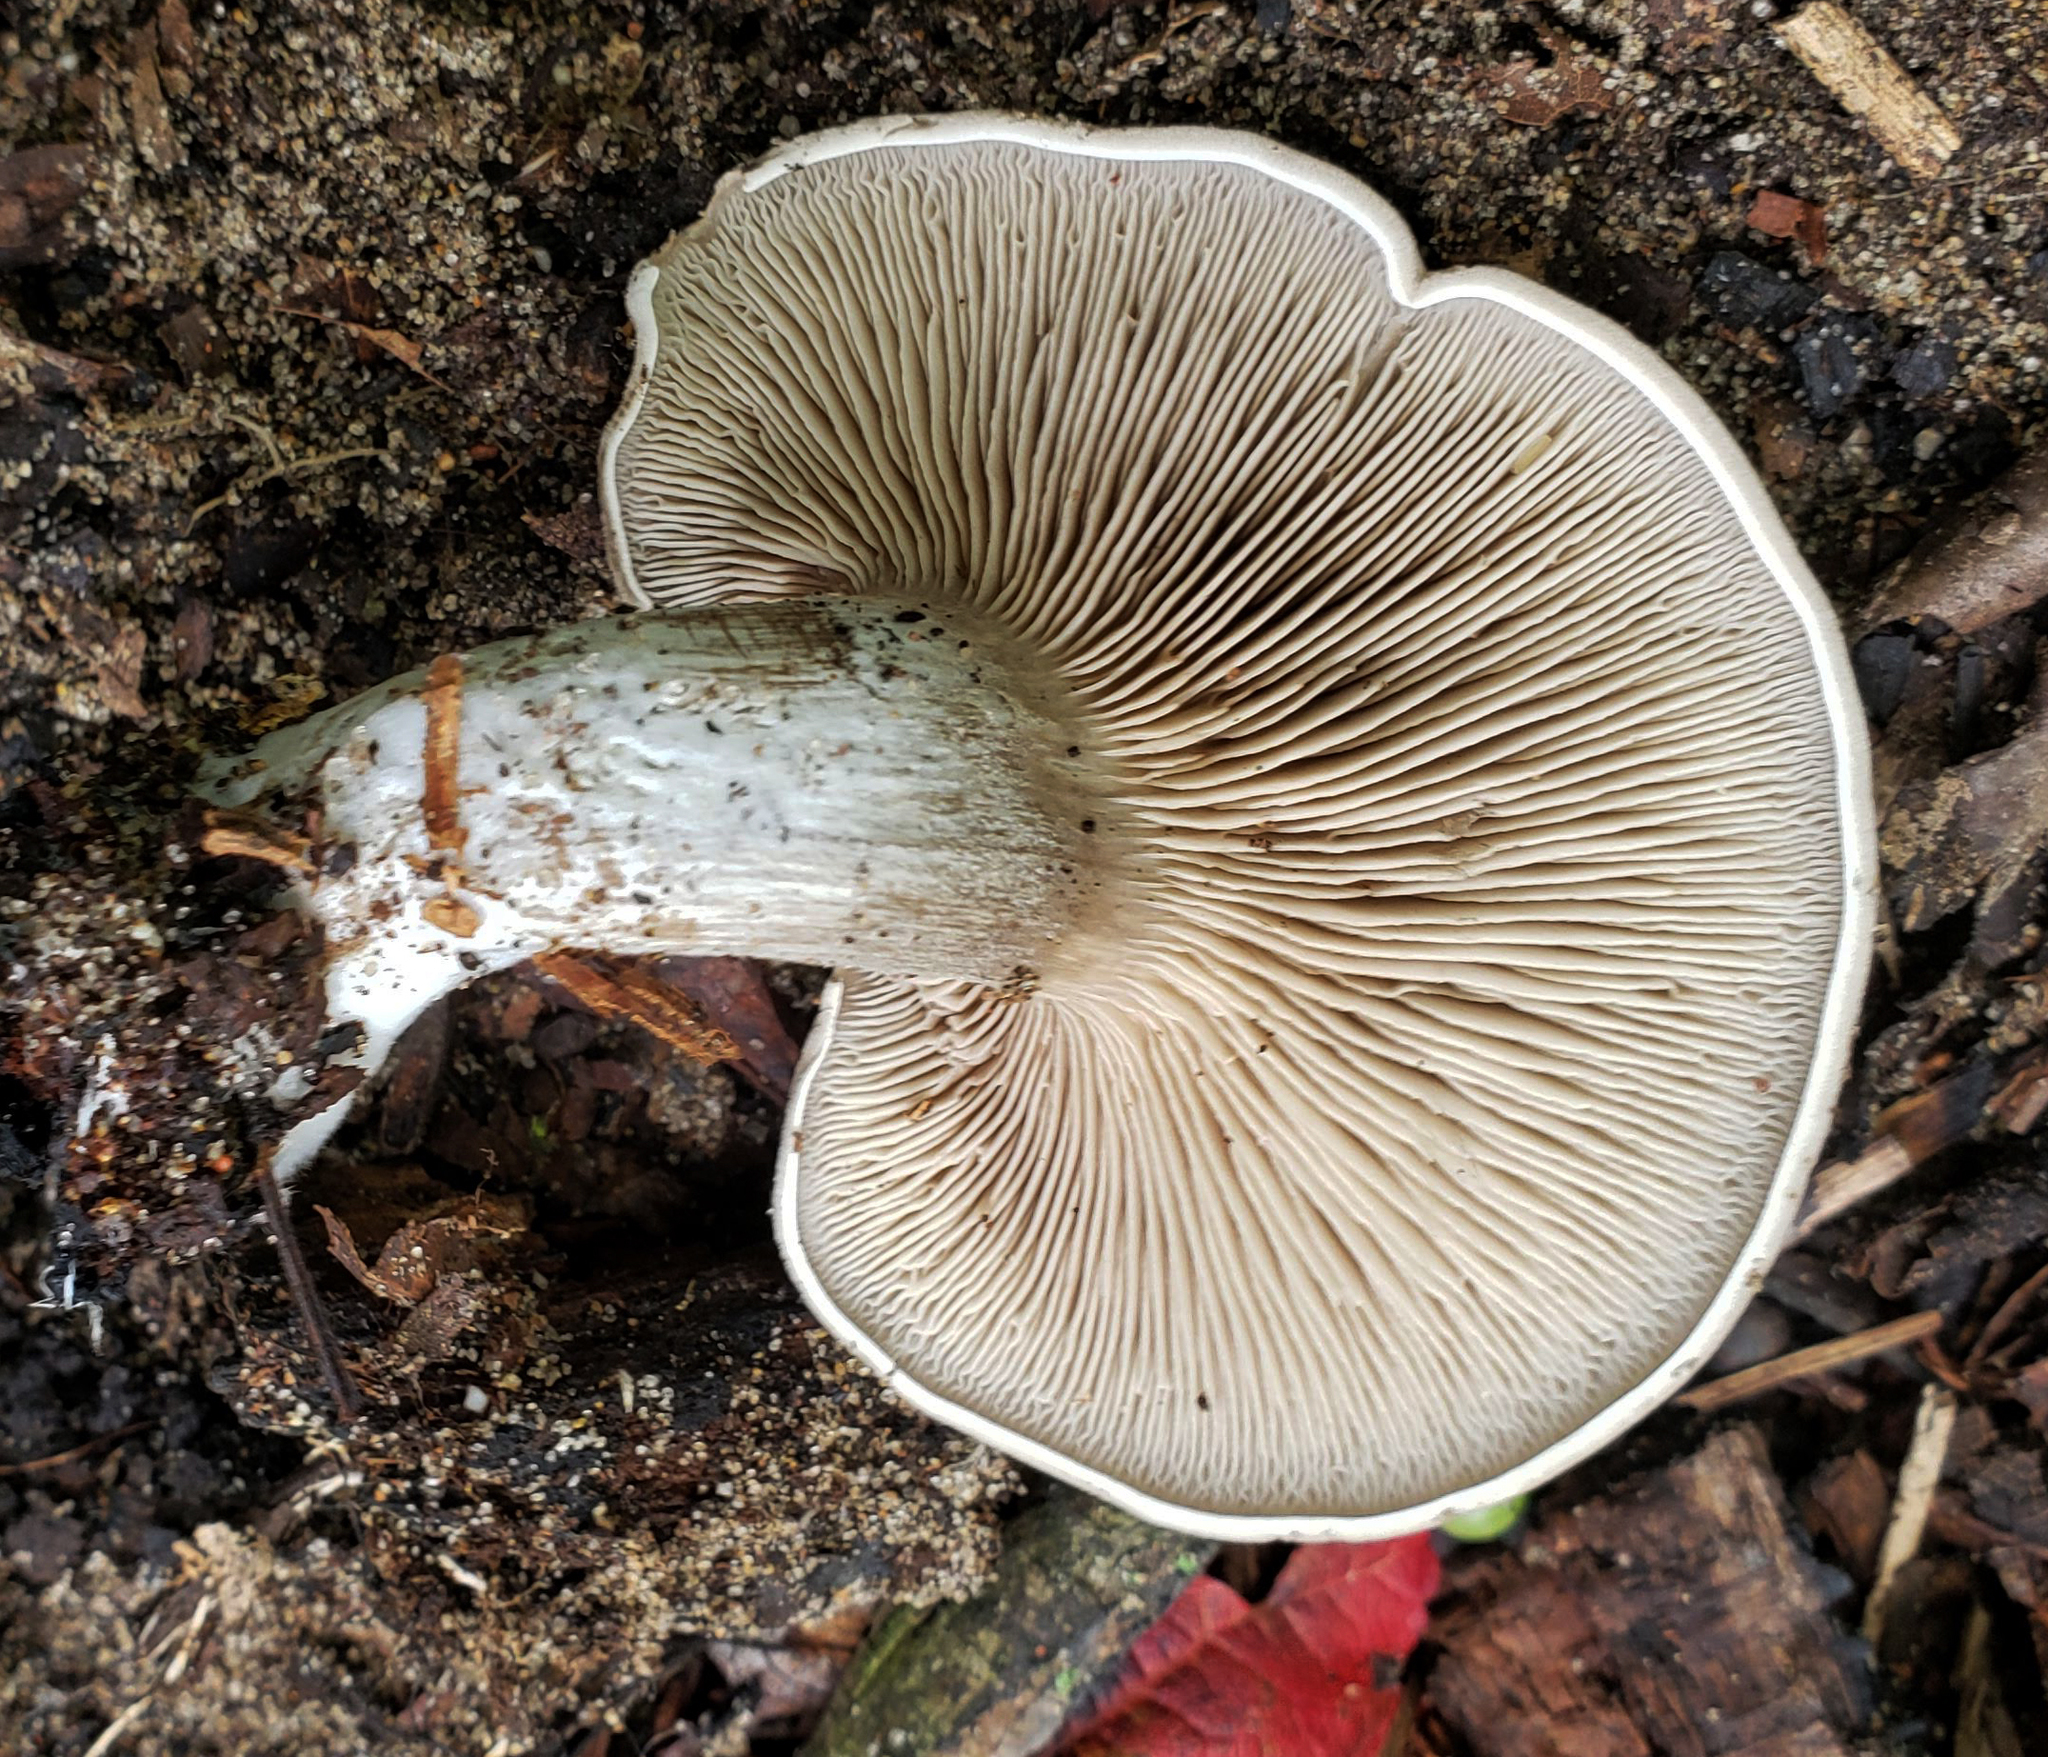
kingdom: Fungi
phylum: Basidiomycota
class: Agaricomycetes
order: Agaricales
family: Entolomataceae
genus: Entoloma
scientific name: Entoloma abortivum
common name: Aborted entoloma
